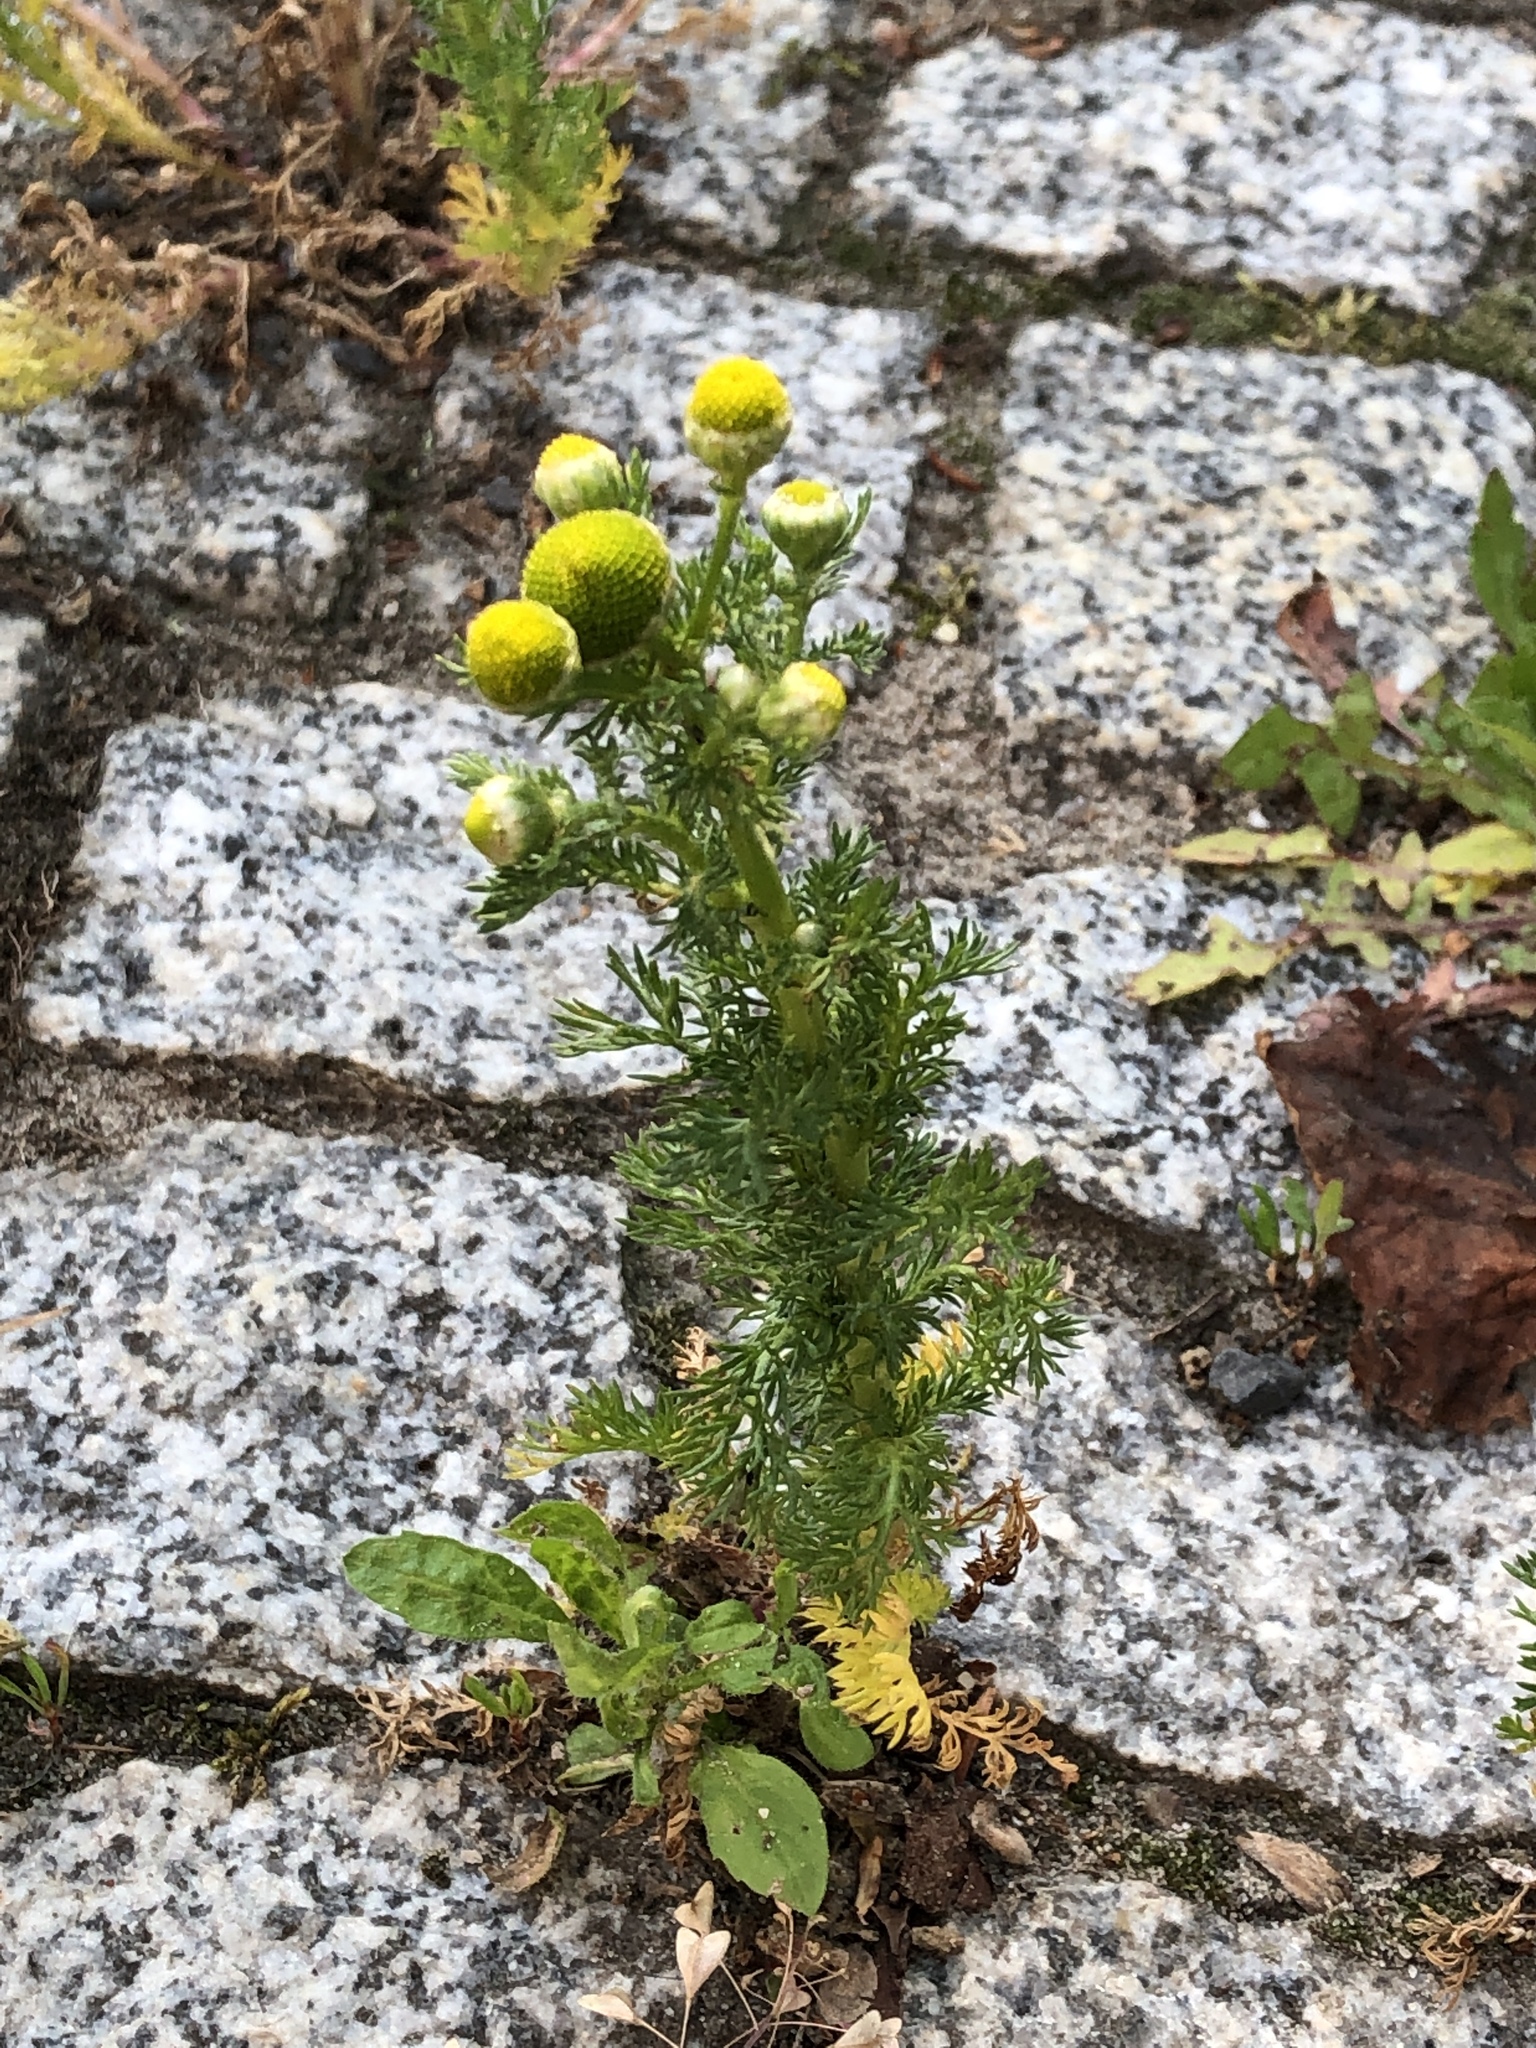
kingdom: Plantae
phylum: Tracheophyta
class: Magnoliopsida
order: Asterales
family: Asteraceae
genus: Matricaria
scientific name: Matricaria discoidea
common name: Disc mayweed
